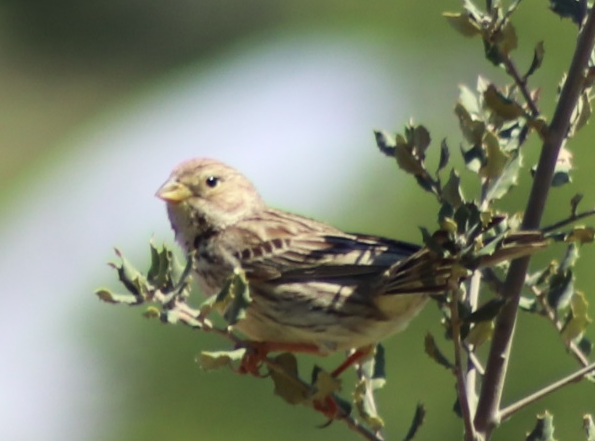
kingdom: Animalia
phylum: Chordata
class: Aves
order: Passeriformes
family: Emberizidae
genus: Emberiza
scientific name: Emberiza calandra
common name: Corn bunting
